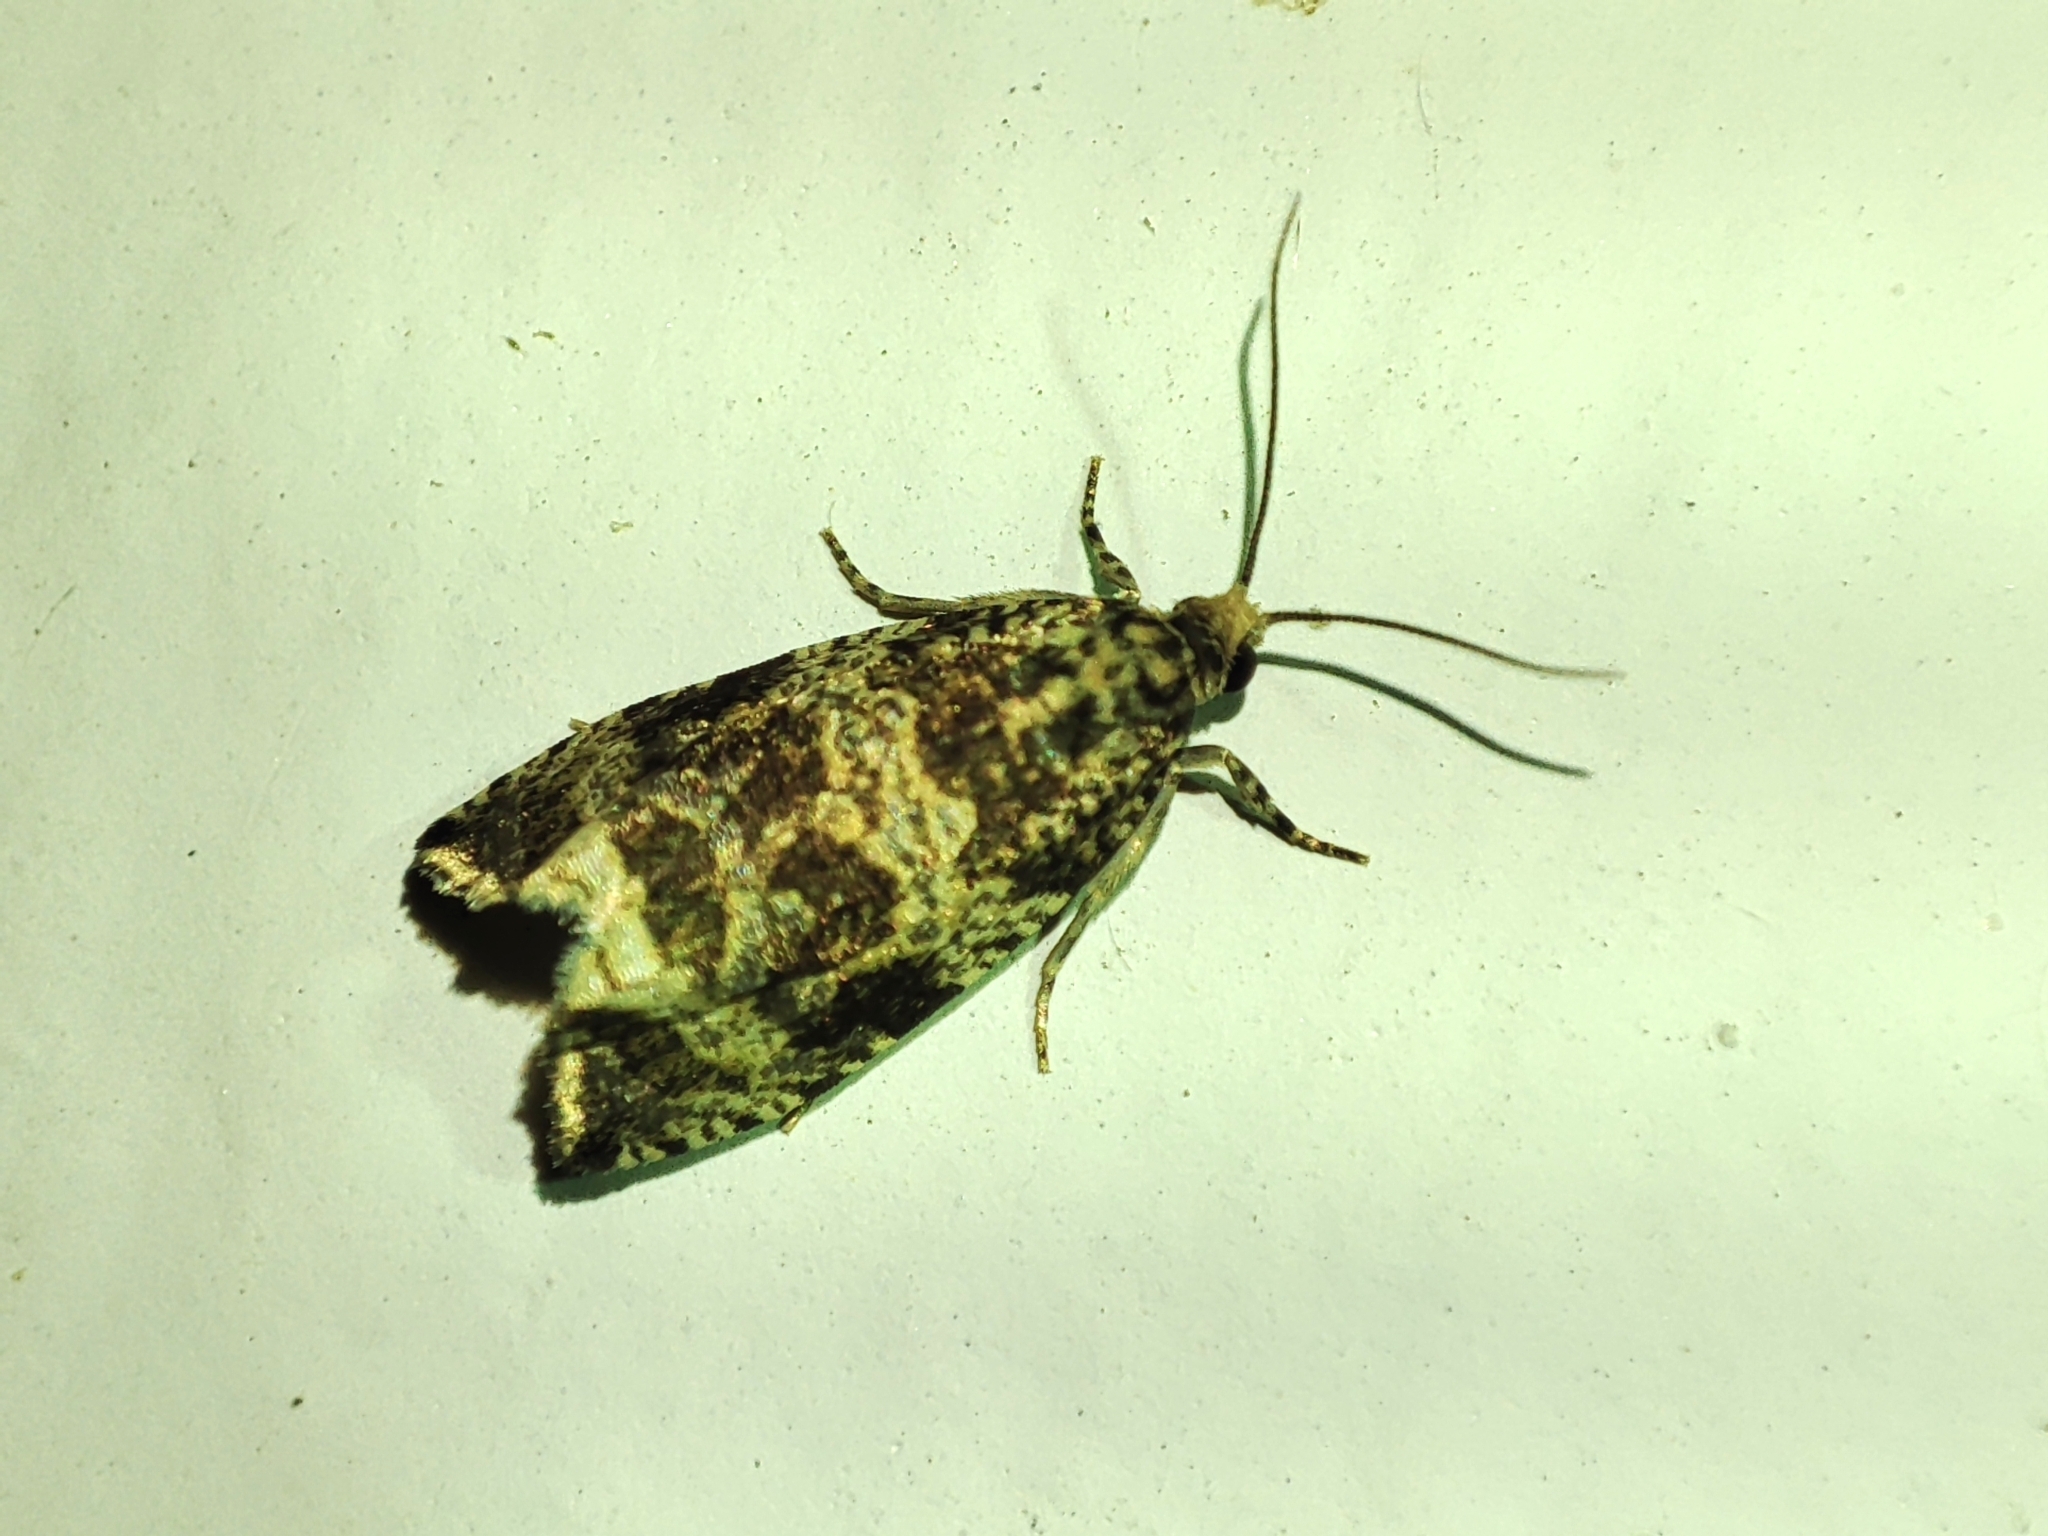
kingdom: Animalia
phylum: Arthropoda
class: Insecta
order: Lepidoptera
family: Tortricidae
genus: Syricoris
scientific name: Syricoris lacunana
